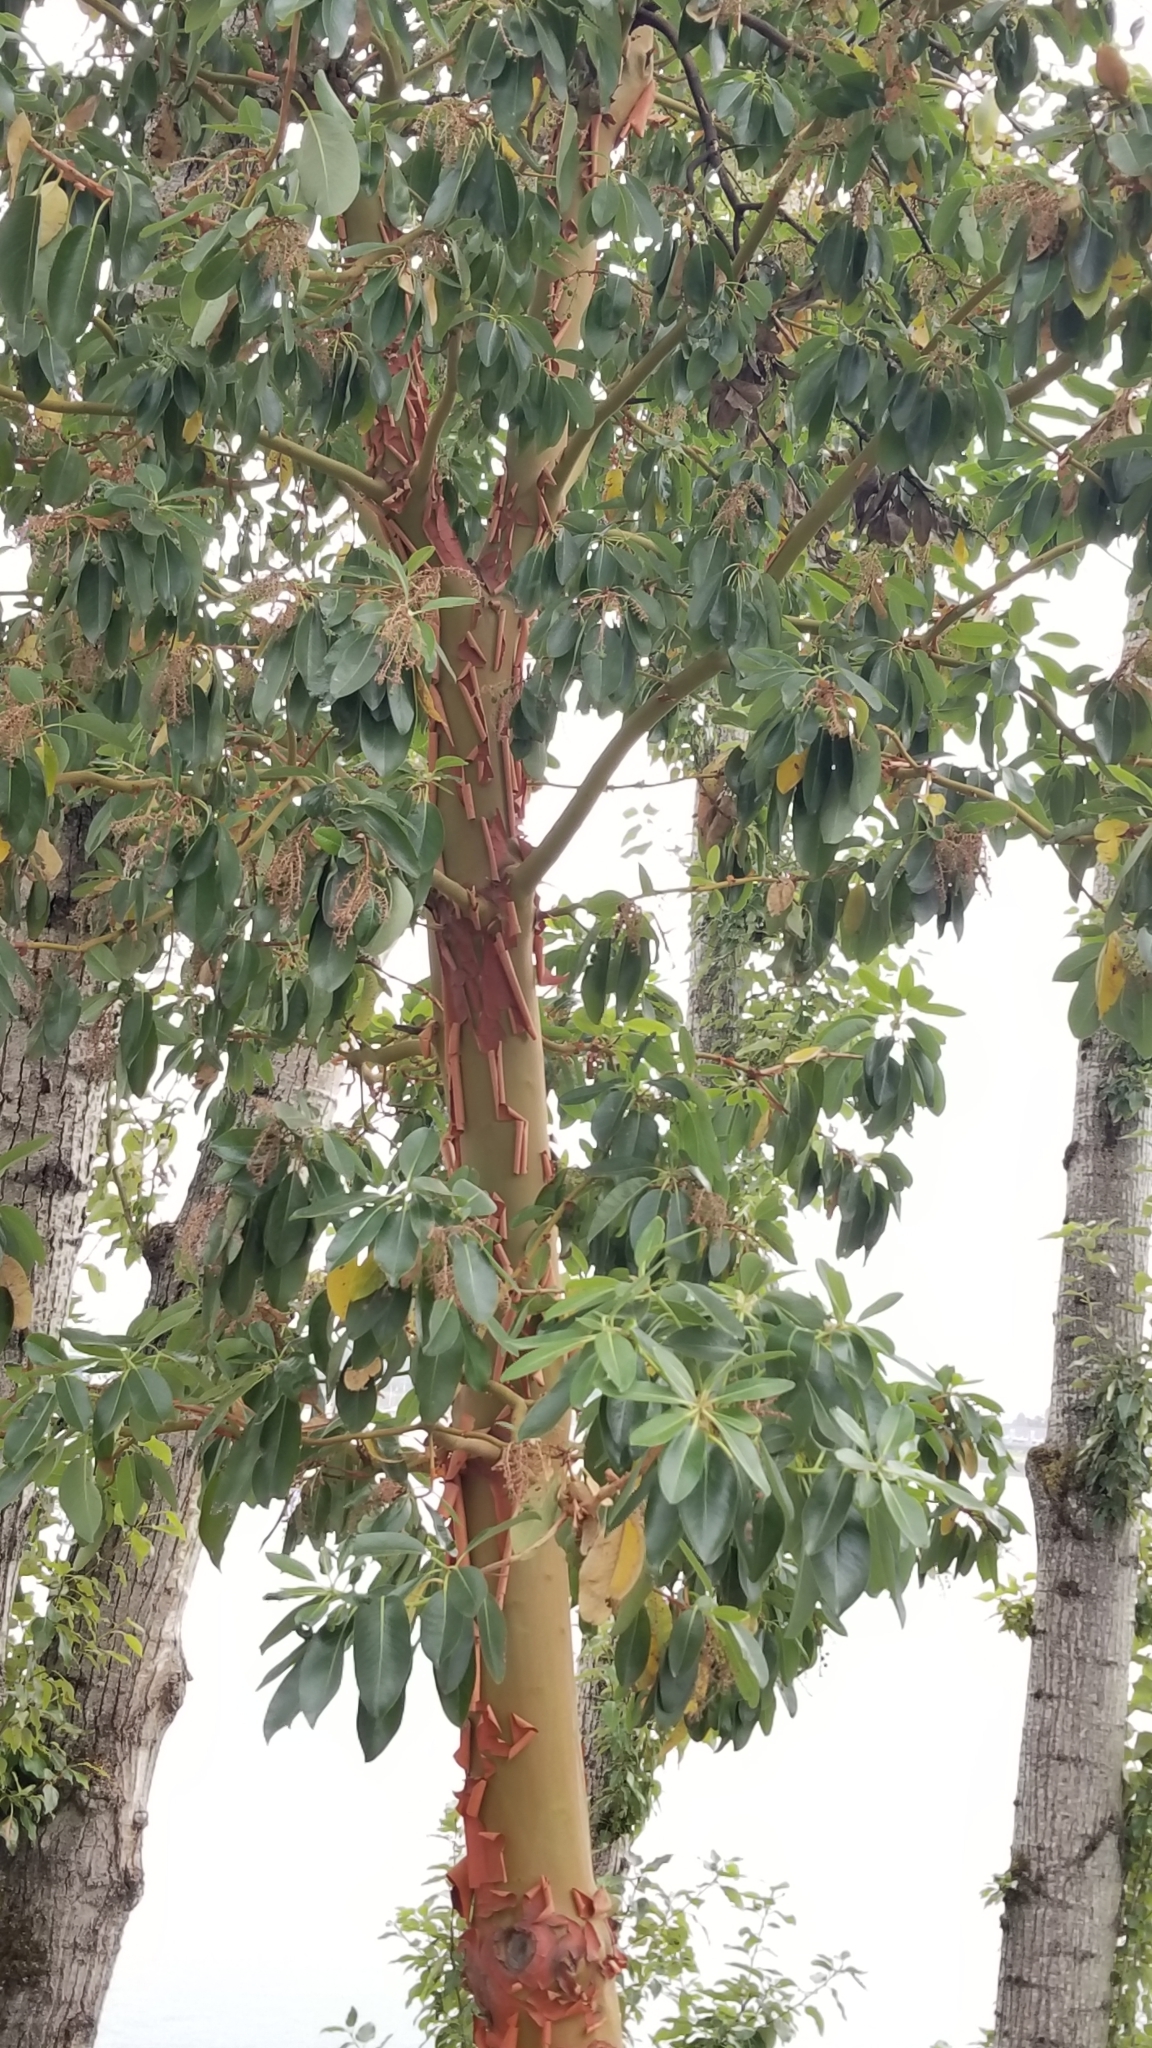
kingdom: Plantae
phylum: Tracheophyta
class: Magnoliopsida
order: Ericales
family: Ericaceae
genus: Arbutus
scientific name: Arbutus menziesii
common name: Pacific madrone
